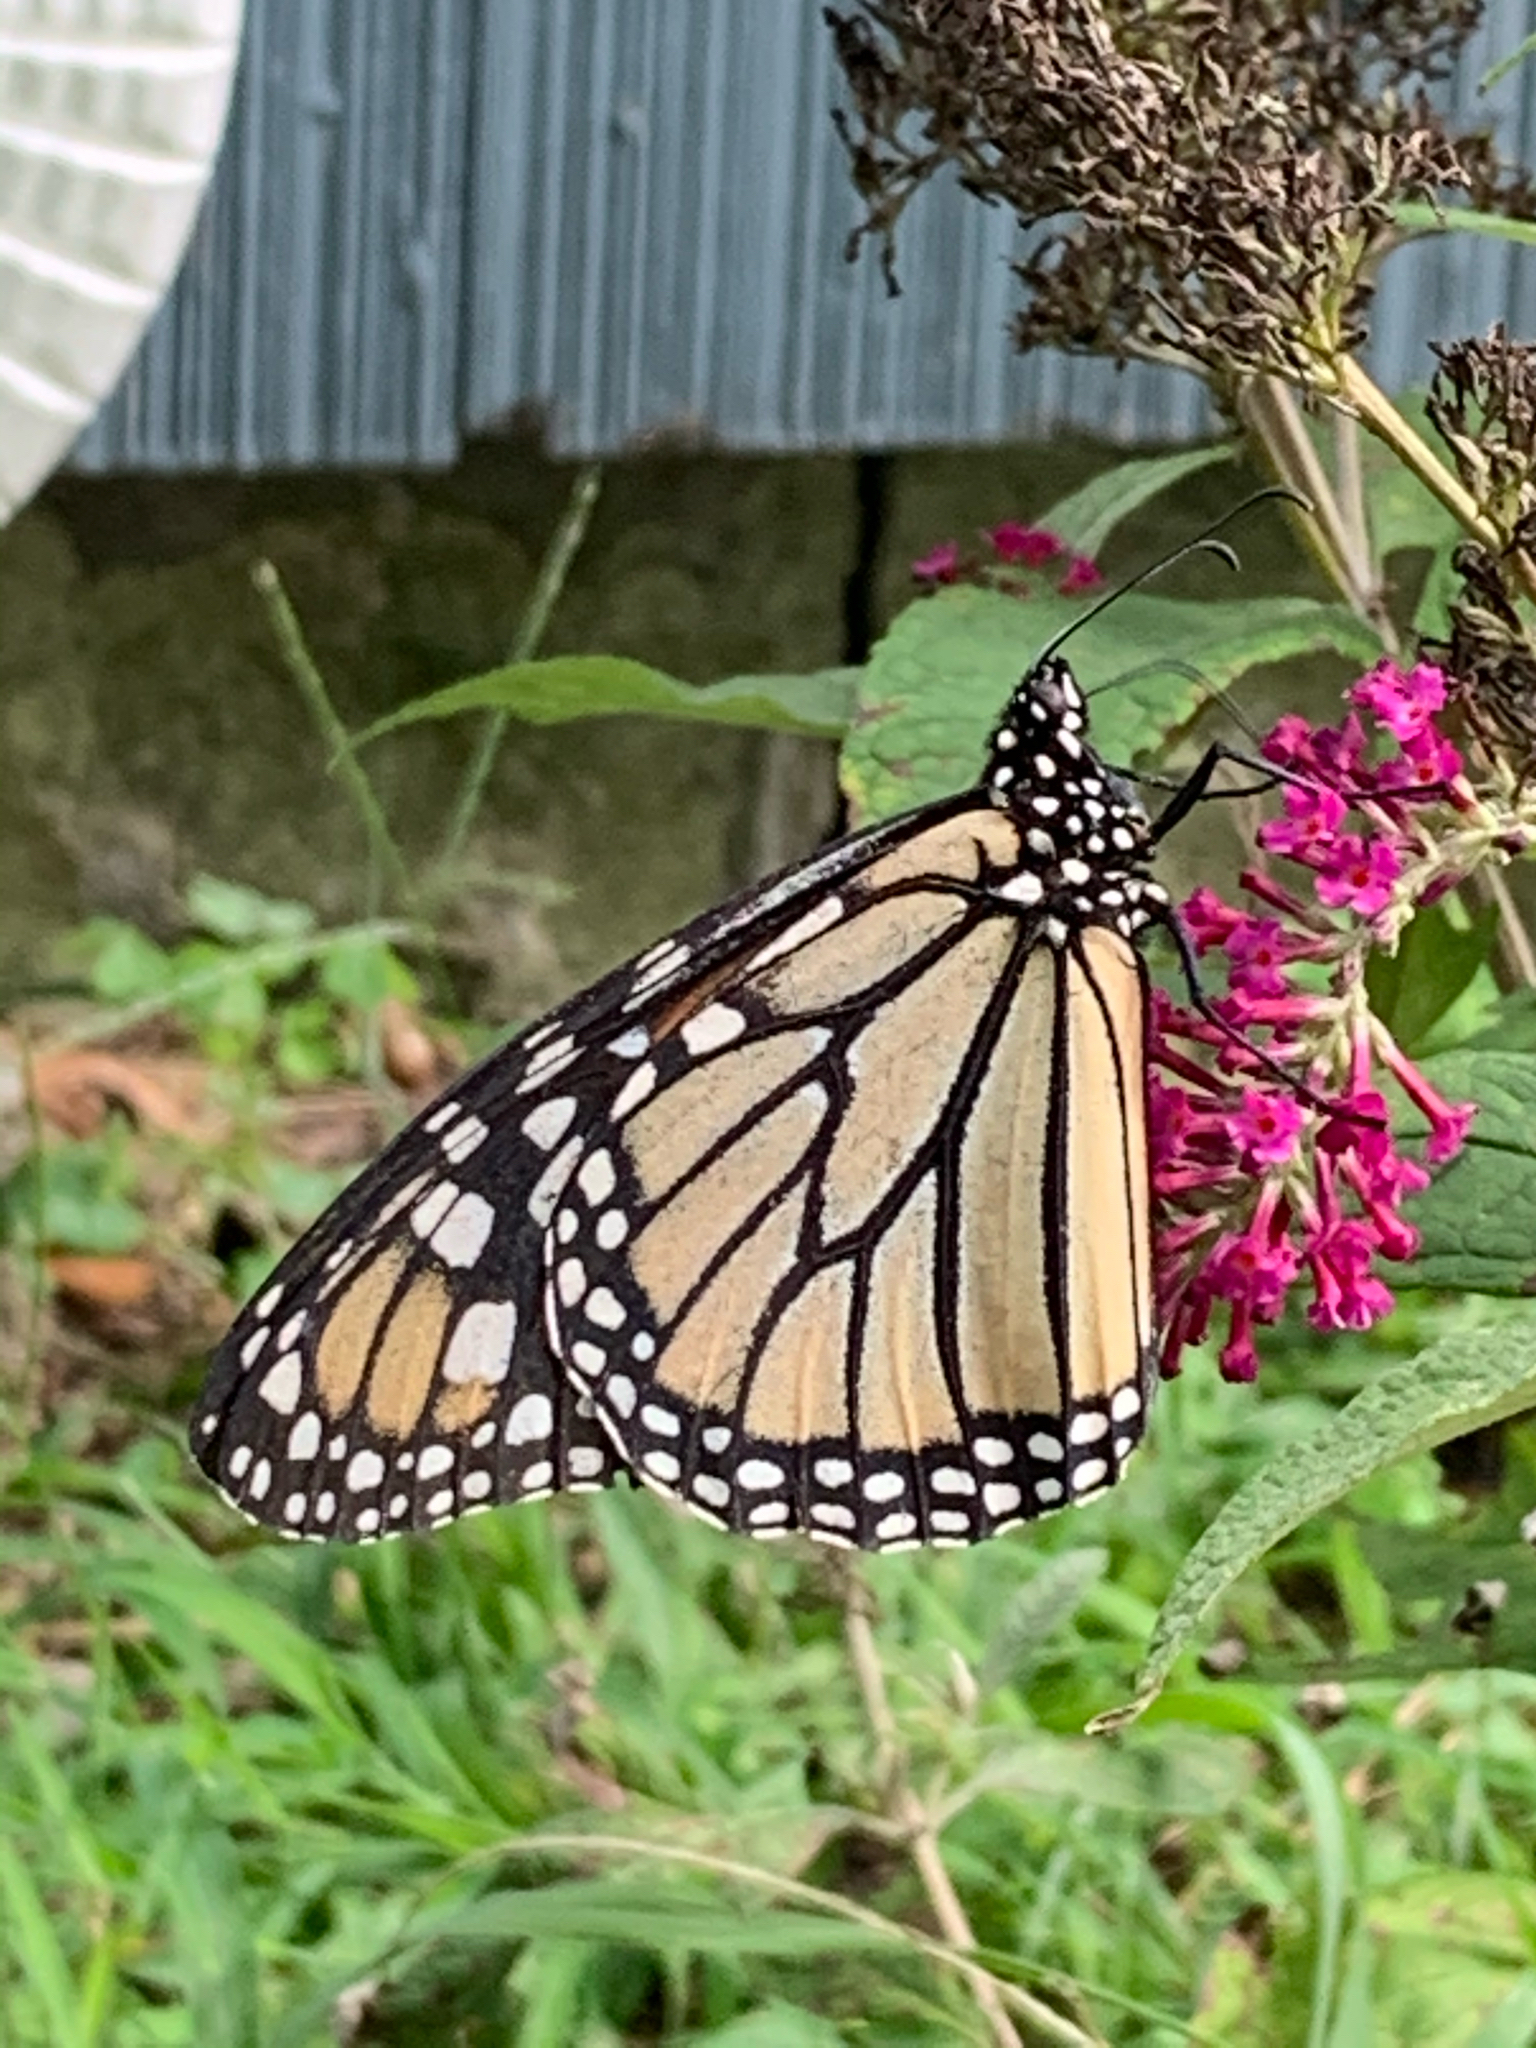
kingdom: Animalia
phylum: Arthropoda
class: Insecta
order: Lepidoptera
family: Nymphalidae
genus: Danaus
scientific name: Danaus plexippus
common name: Monarch
